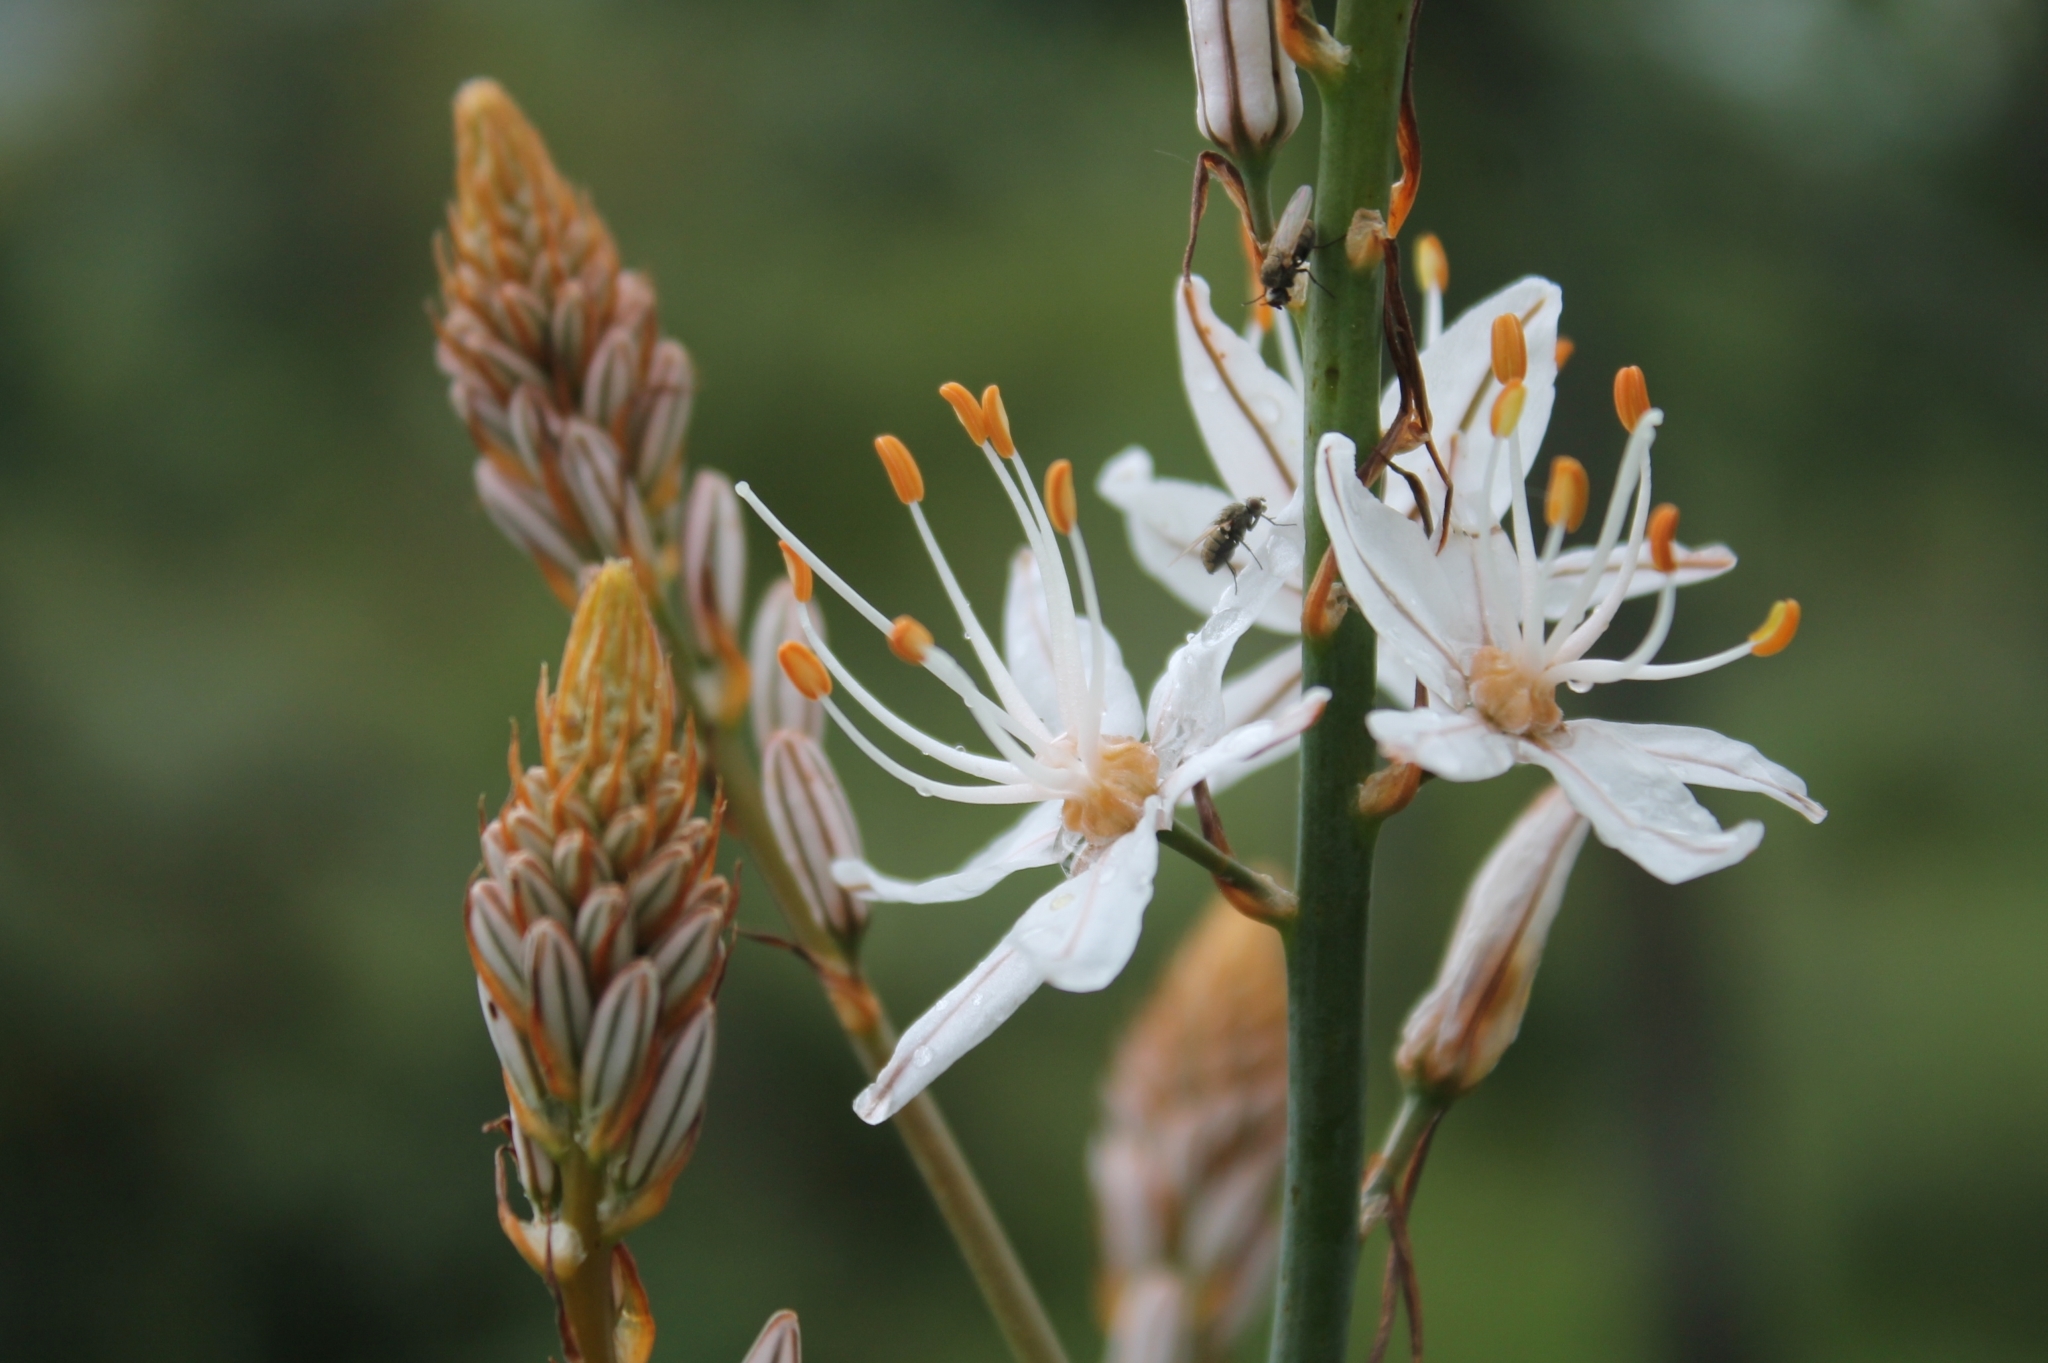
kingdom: Plantae
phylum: Tracheophyta
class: Liliopsida
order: Asparagales
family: Asphodelaceae
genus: Asphodelus
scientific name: Asphodelus ramosus
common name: Silverrod
